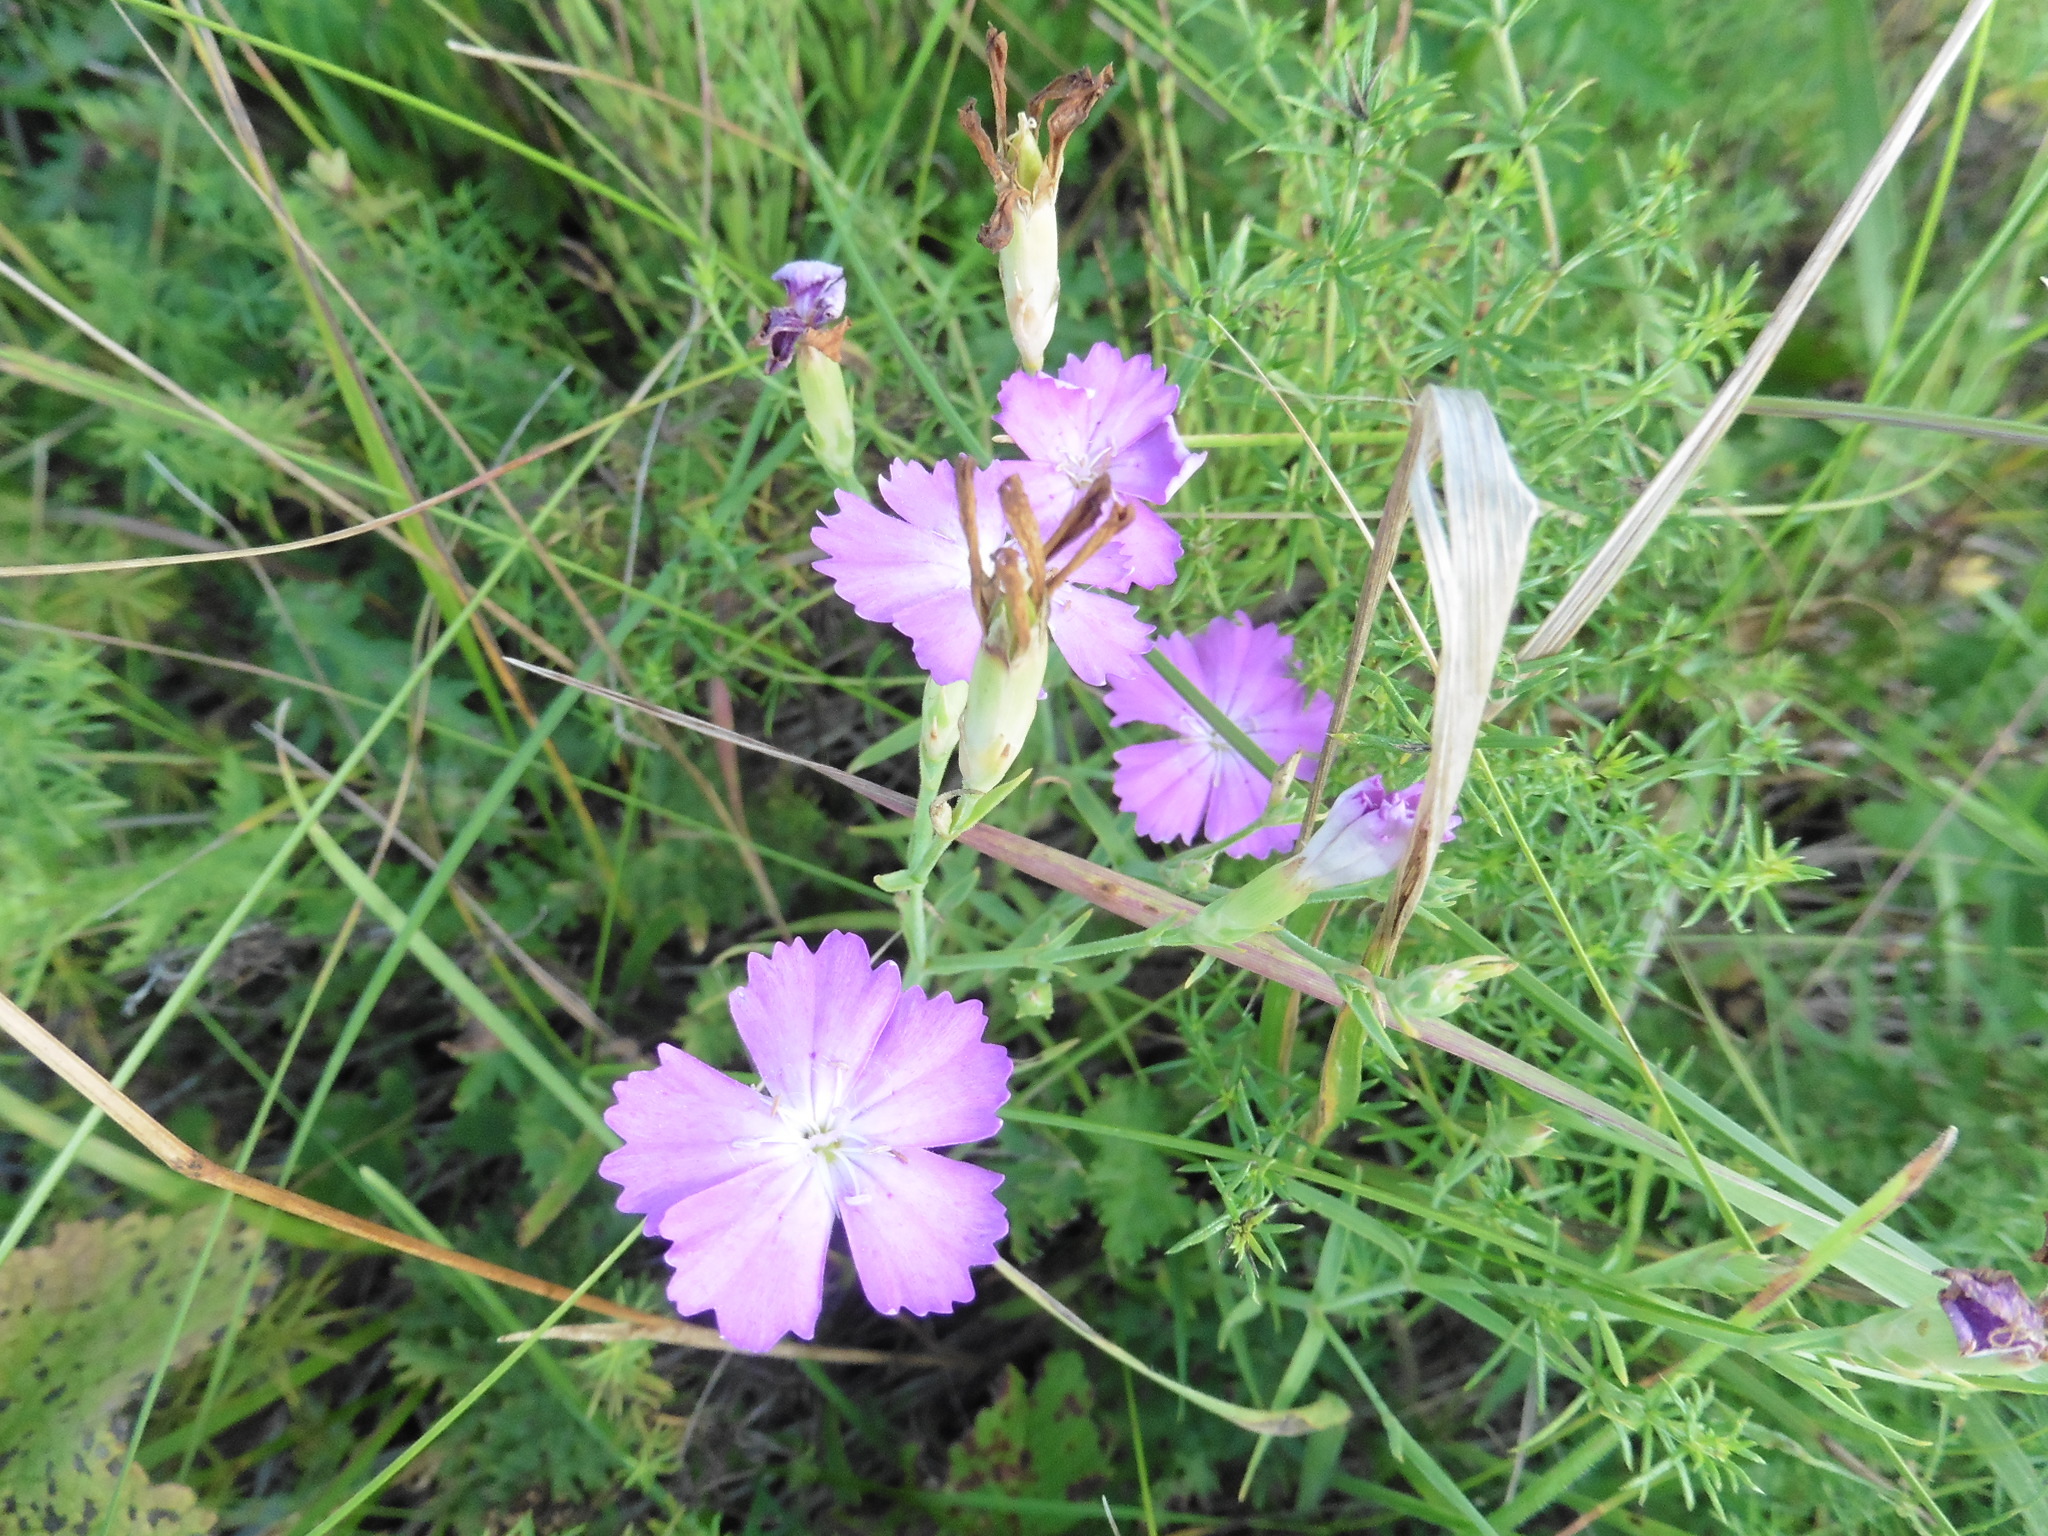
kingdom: Plantae
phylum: Tracheophyta
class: Magnoliopsida
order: Caryophyllales
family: Caryophyllaceae
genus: Dianthus
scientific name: Dianthus chinensis
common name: Rainbow pink
